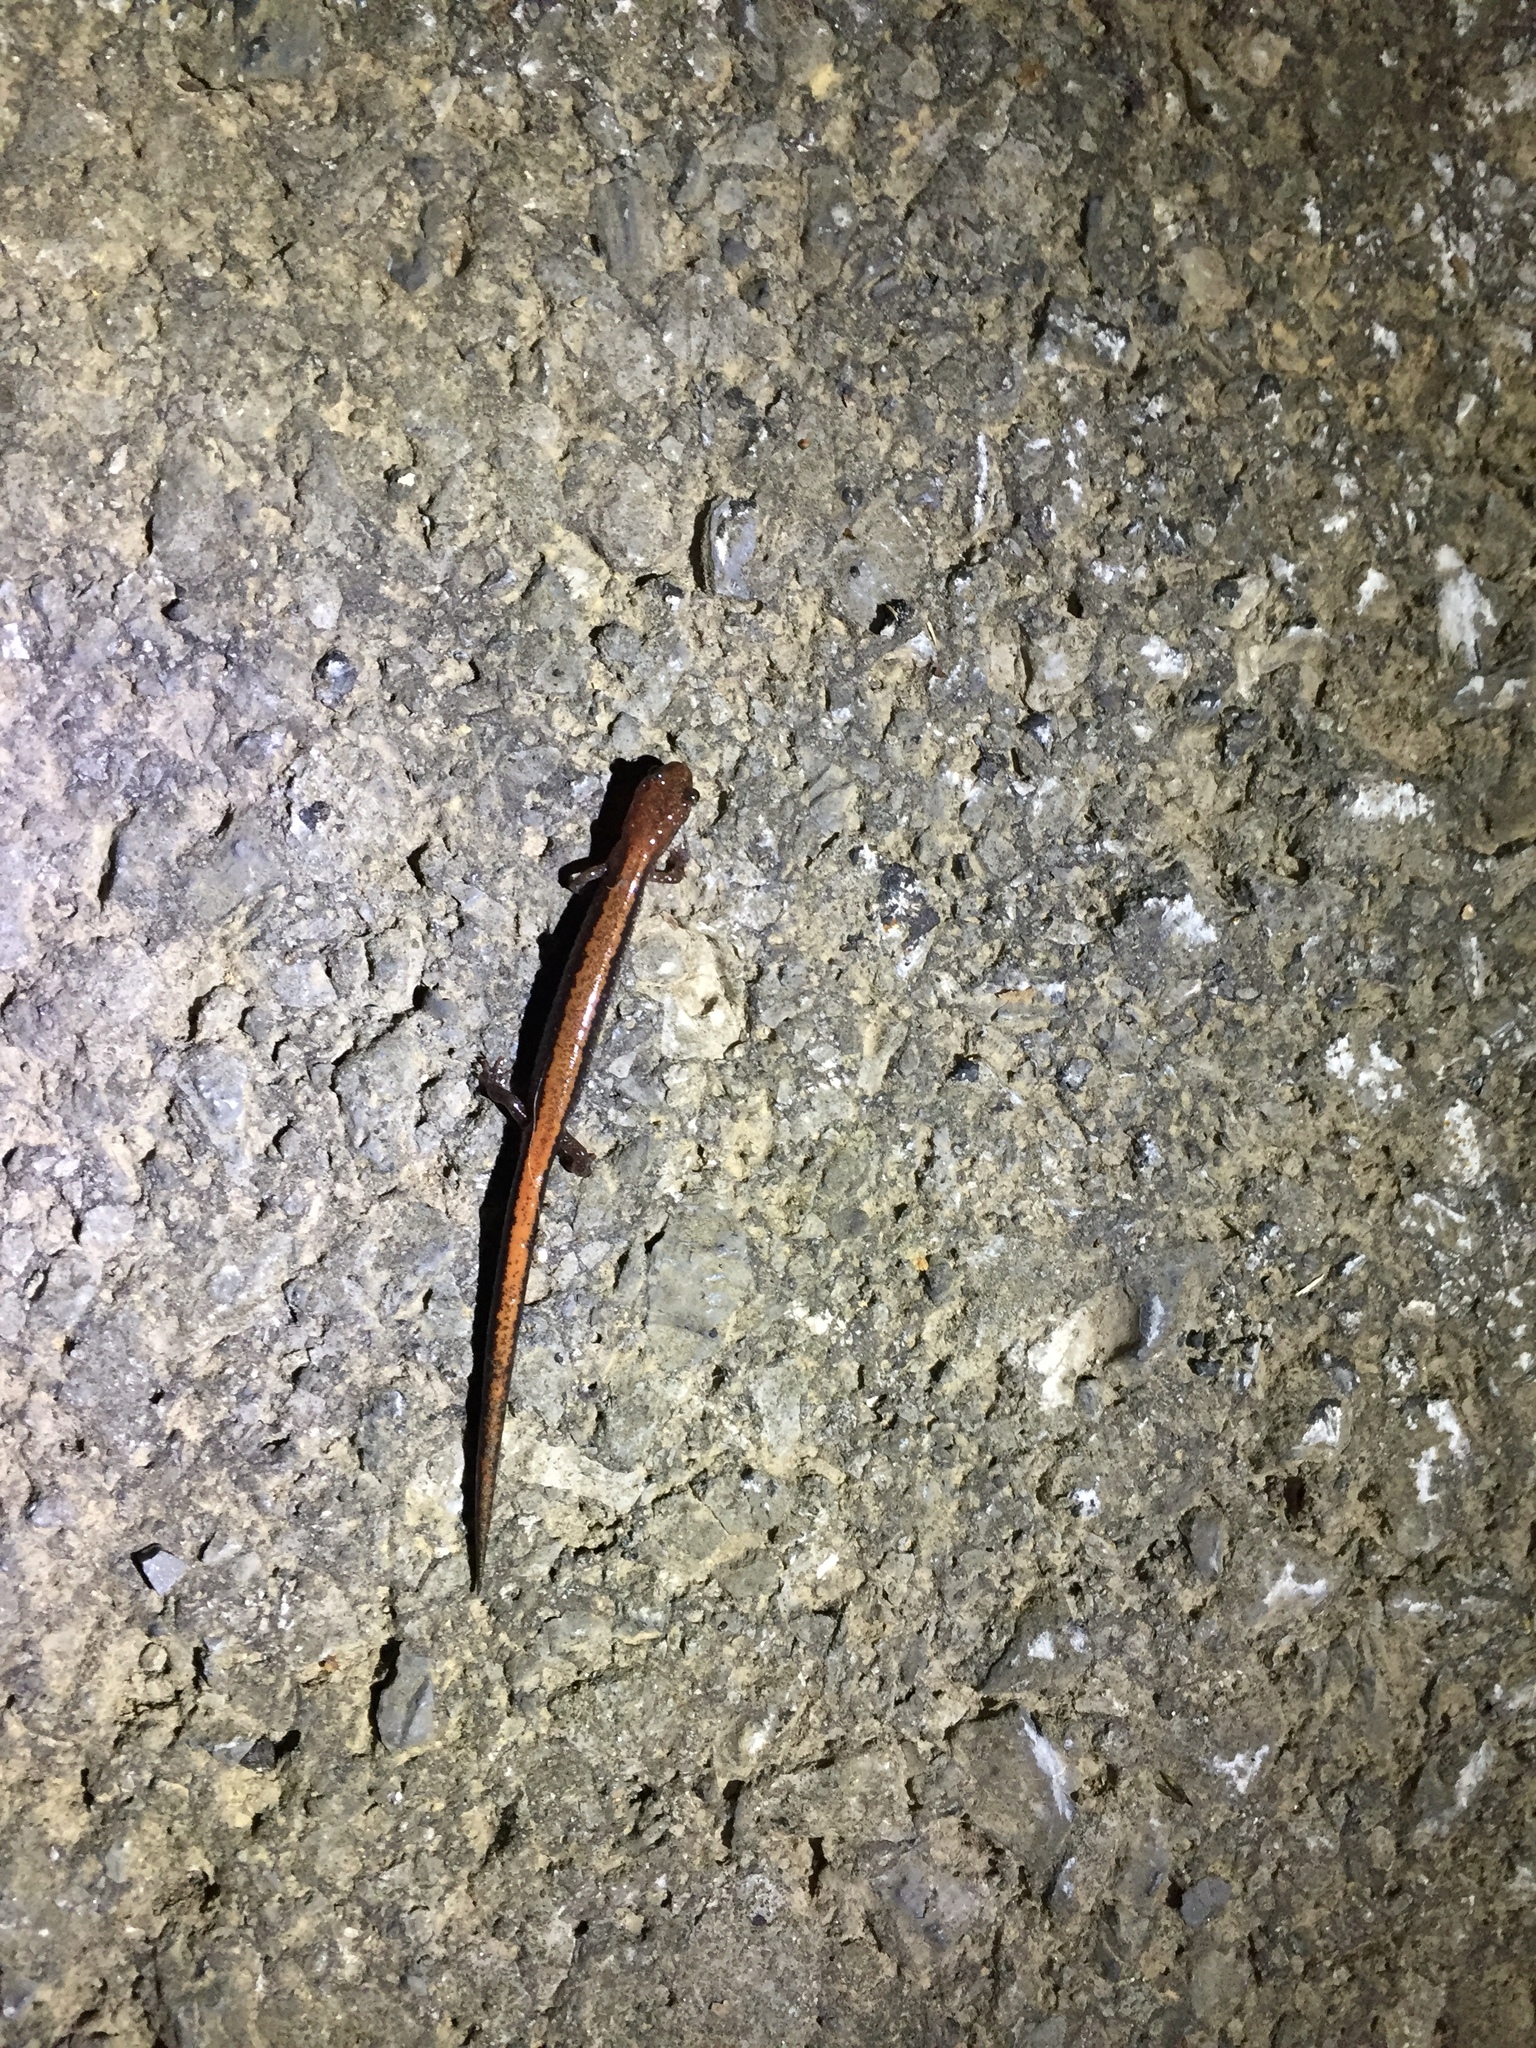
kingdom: Animalia
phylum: Chordata
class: Amphibia
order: Caudata
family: Plethodontidae
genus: Plethodon
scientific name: Plethodon cinereus
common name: Redback salamander
